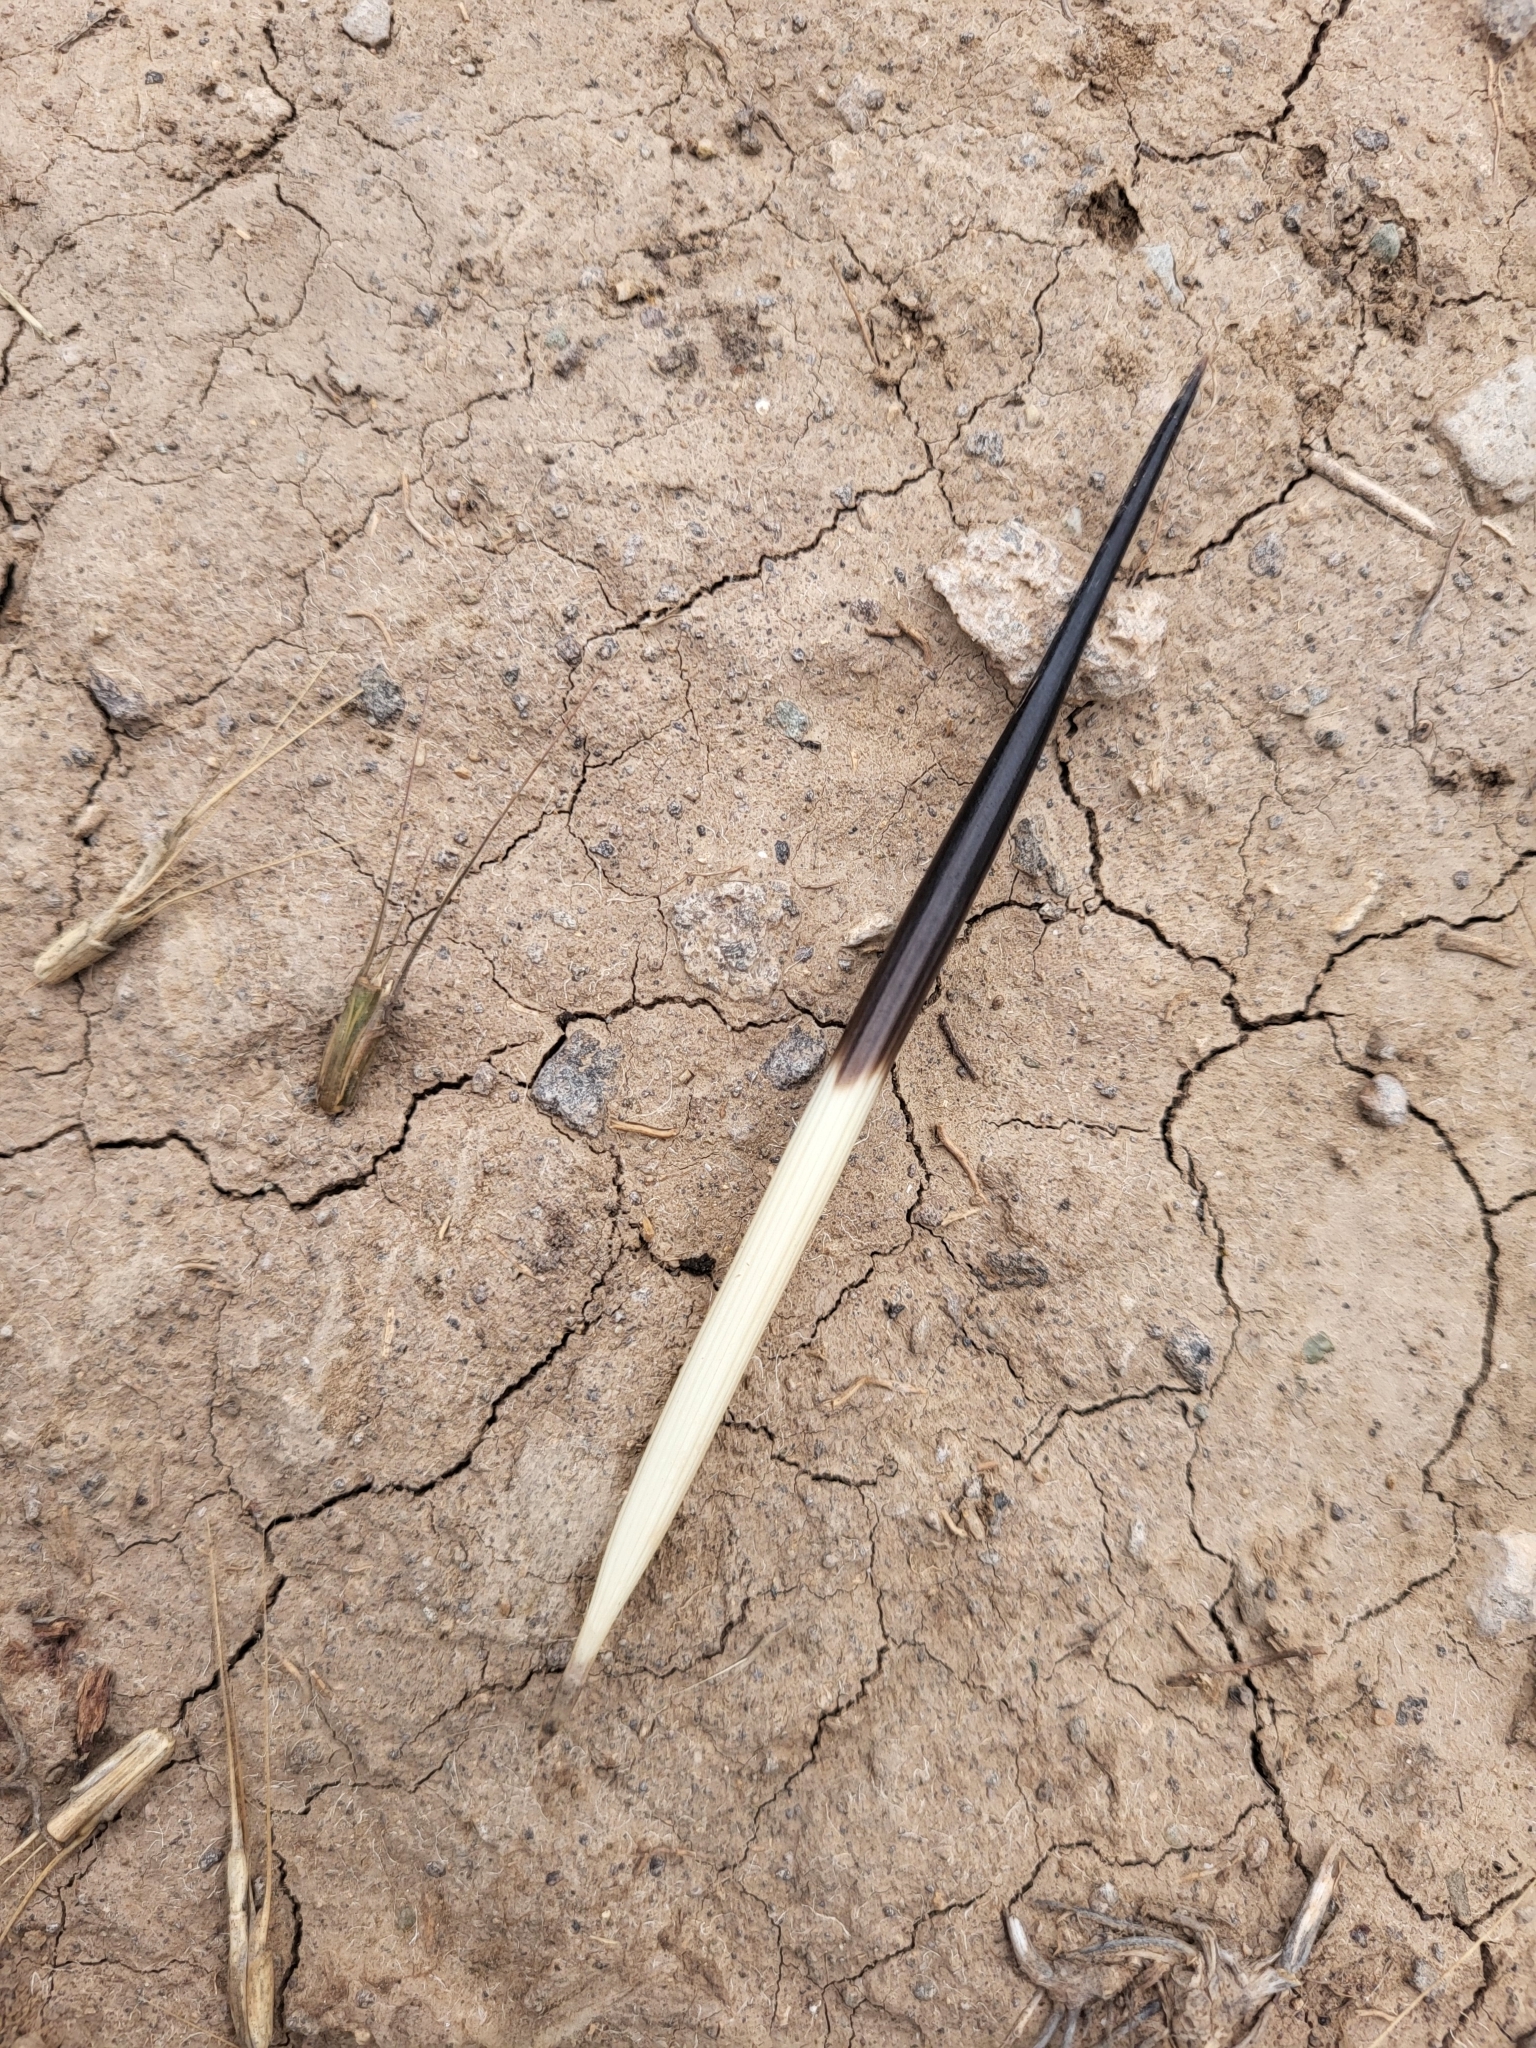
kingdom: Animalia
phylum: Chordata
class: Mammalia
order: Rodentia
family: Hystricidae
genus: Hystrix
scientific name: Hystrix indica
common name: Indian crested porcupine
